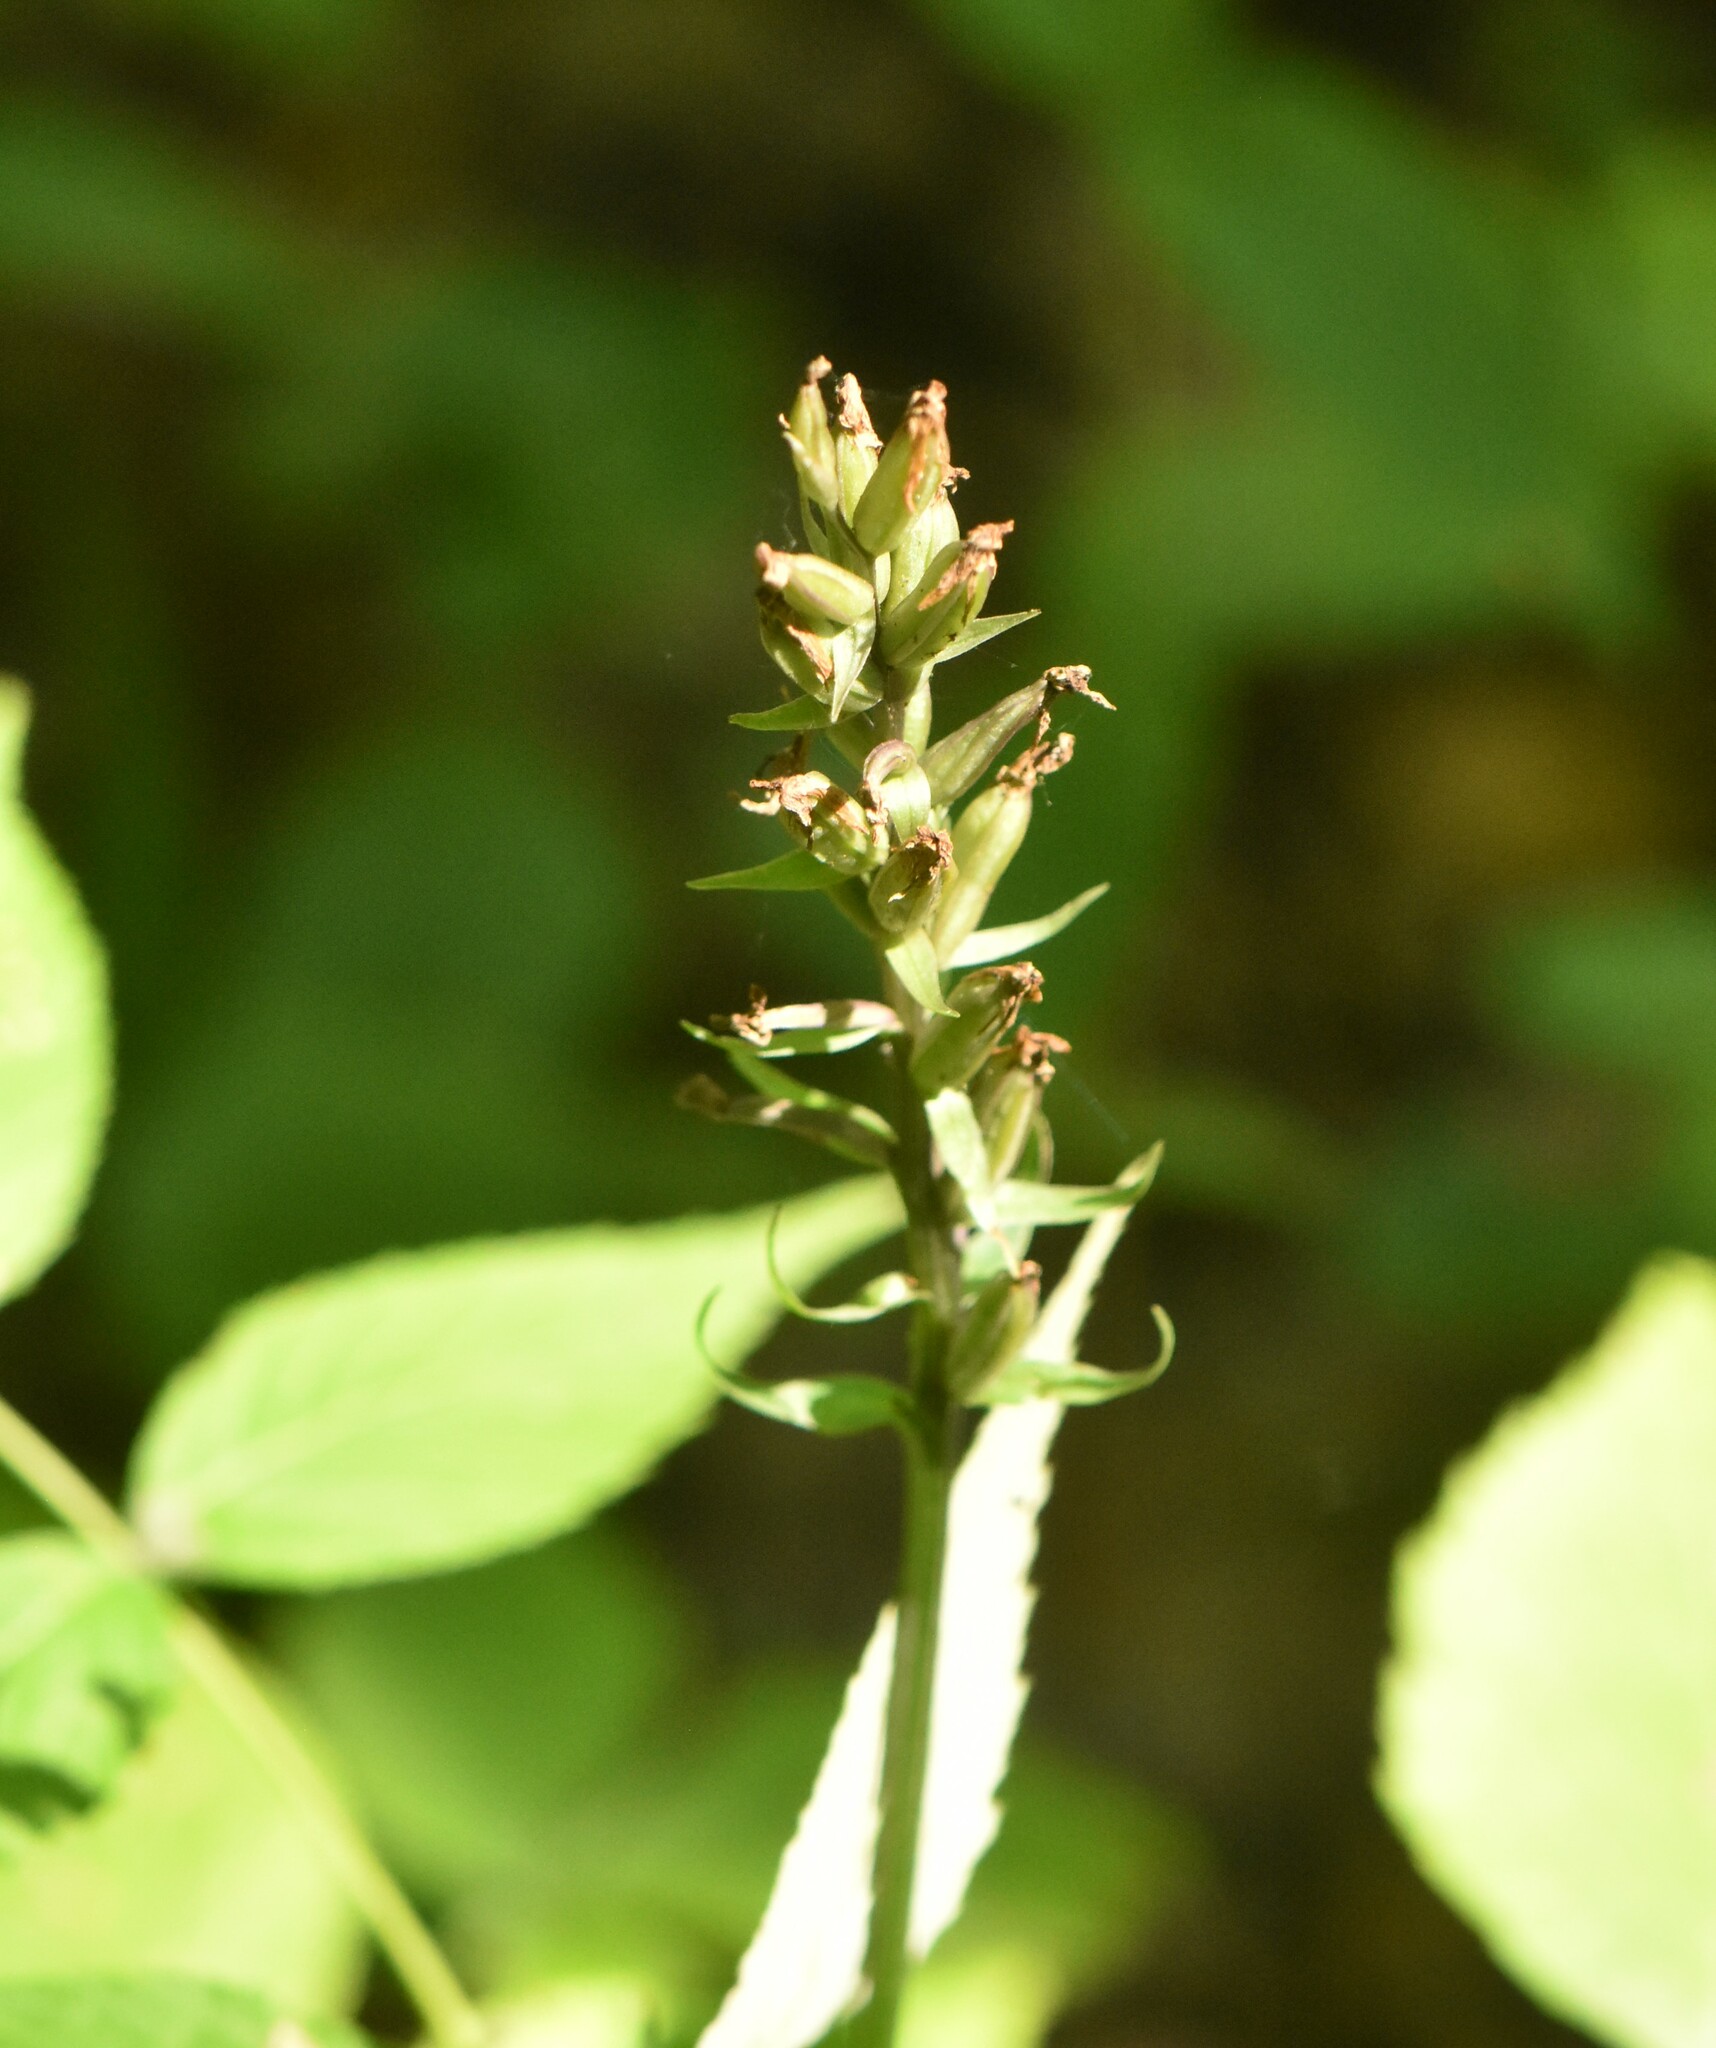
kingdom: Plantae
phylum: Tracheophyta
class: Liliopsida
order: Asparagales
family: Orchidaceae
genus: Dactylorhiza
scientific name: Dactylorhiza maculata
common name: Heath spotted-orchid
